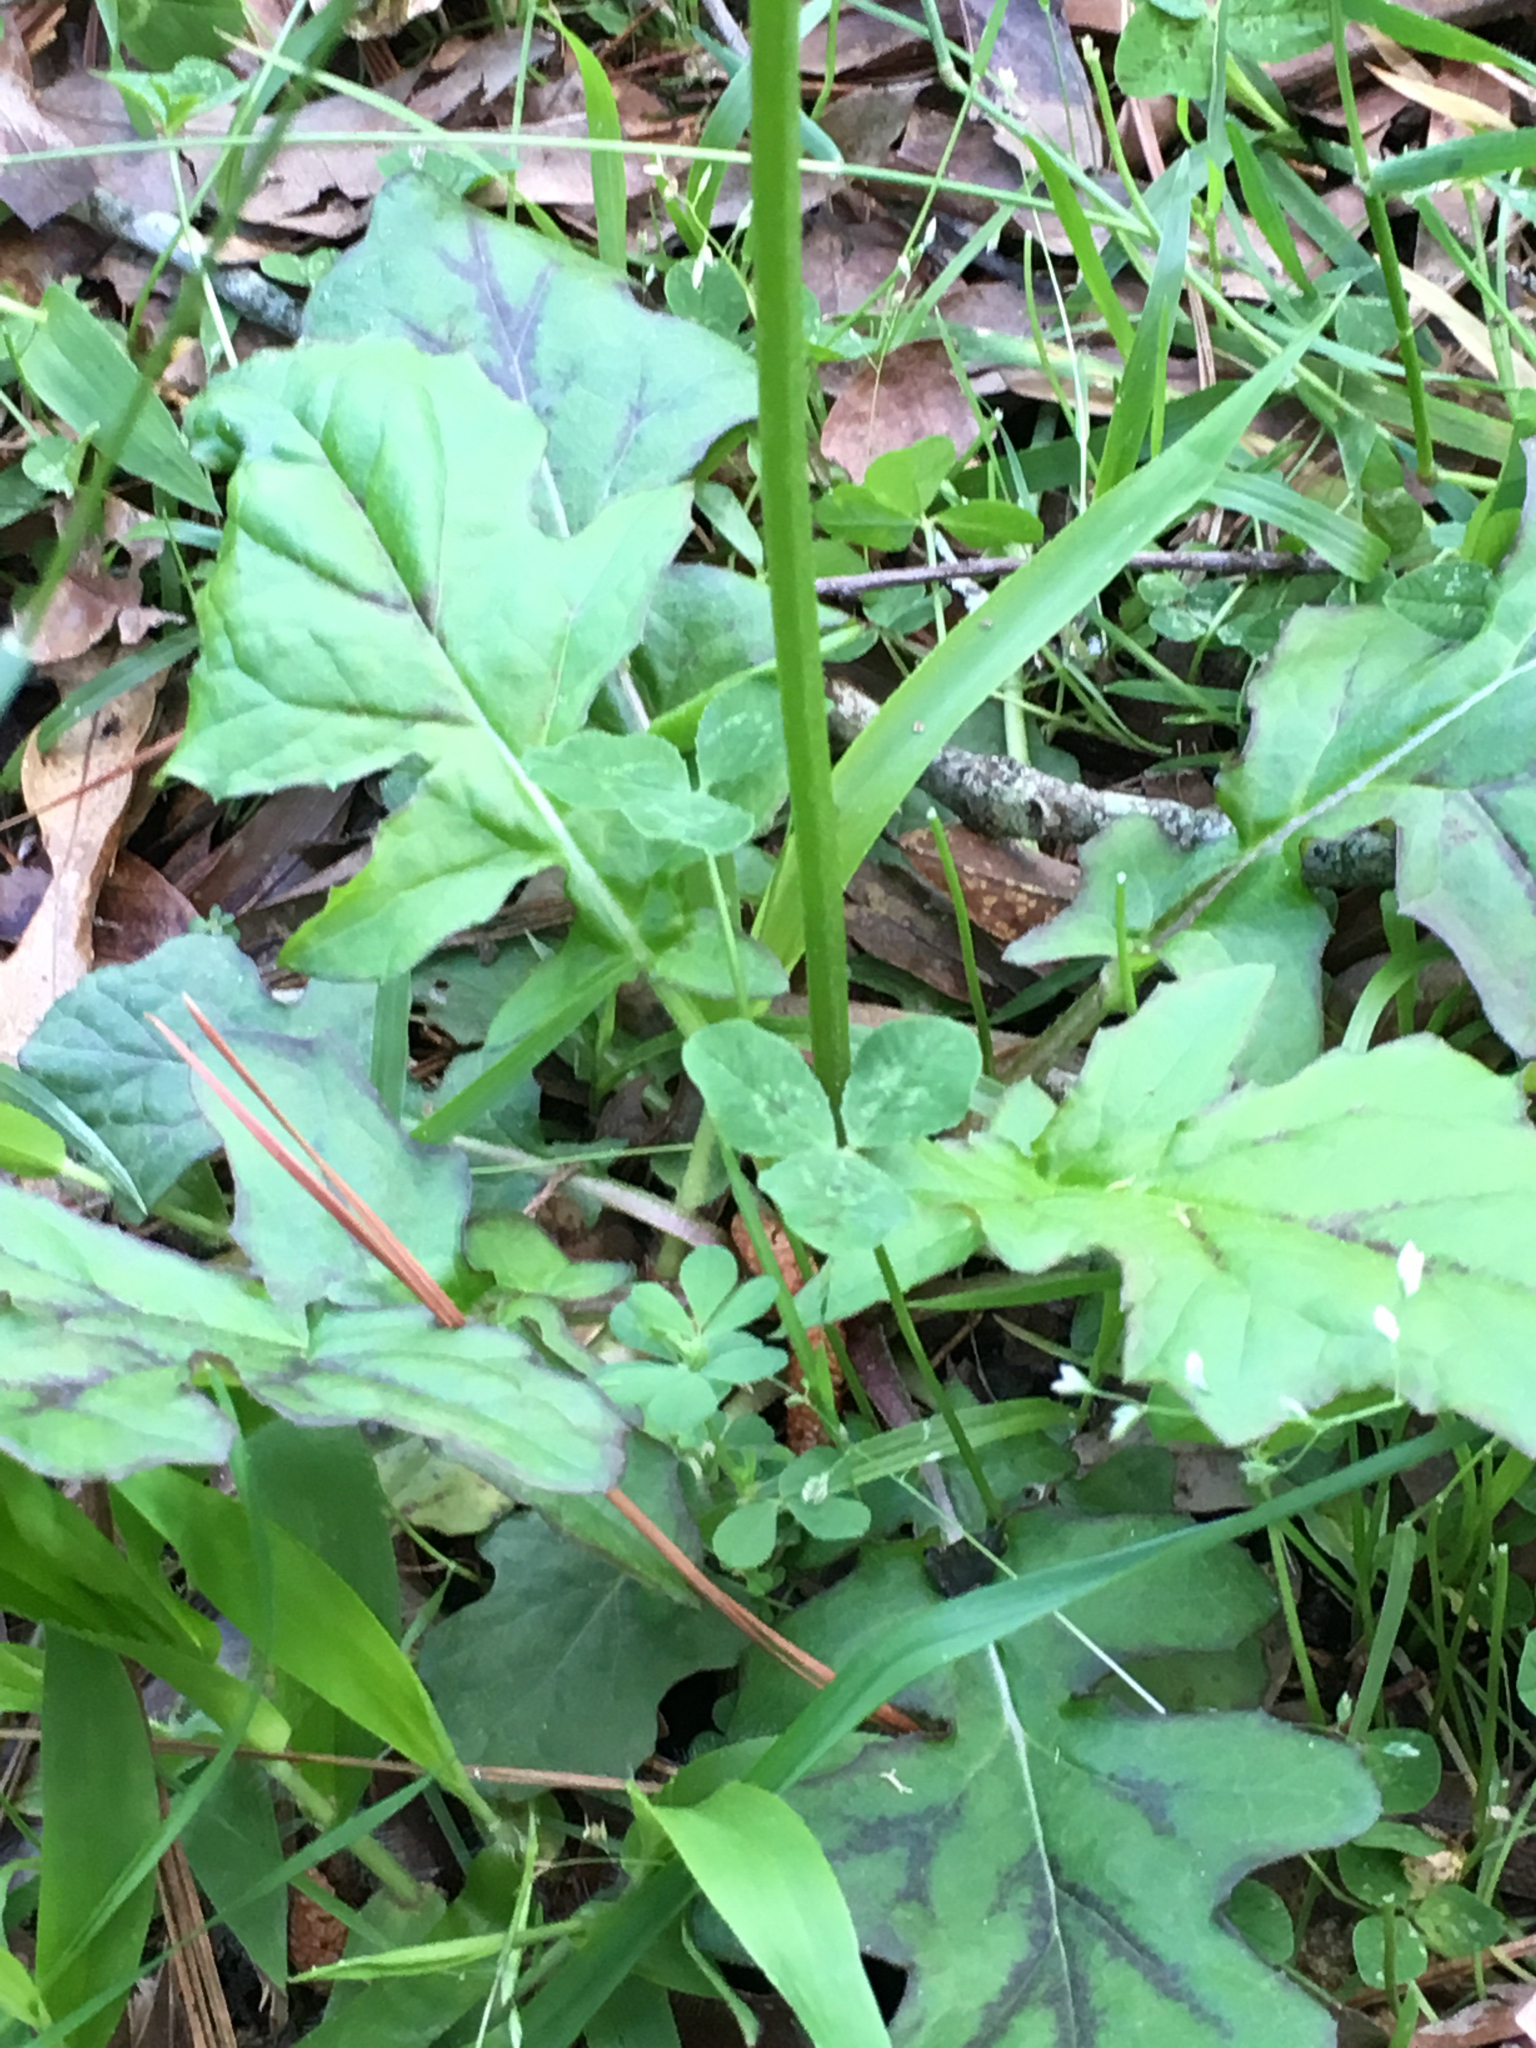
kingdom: Plantae
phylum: Tracheophyta
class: Magnoliopsida
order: Lamiales
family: Lamiaceae
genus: Salvia
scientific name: Salvia lyrata
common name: Cancerweed
